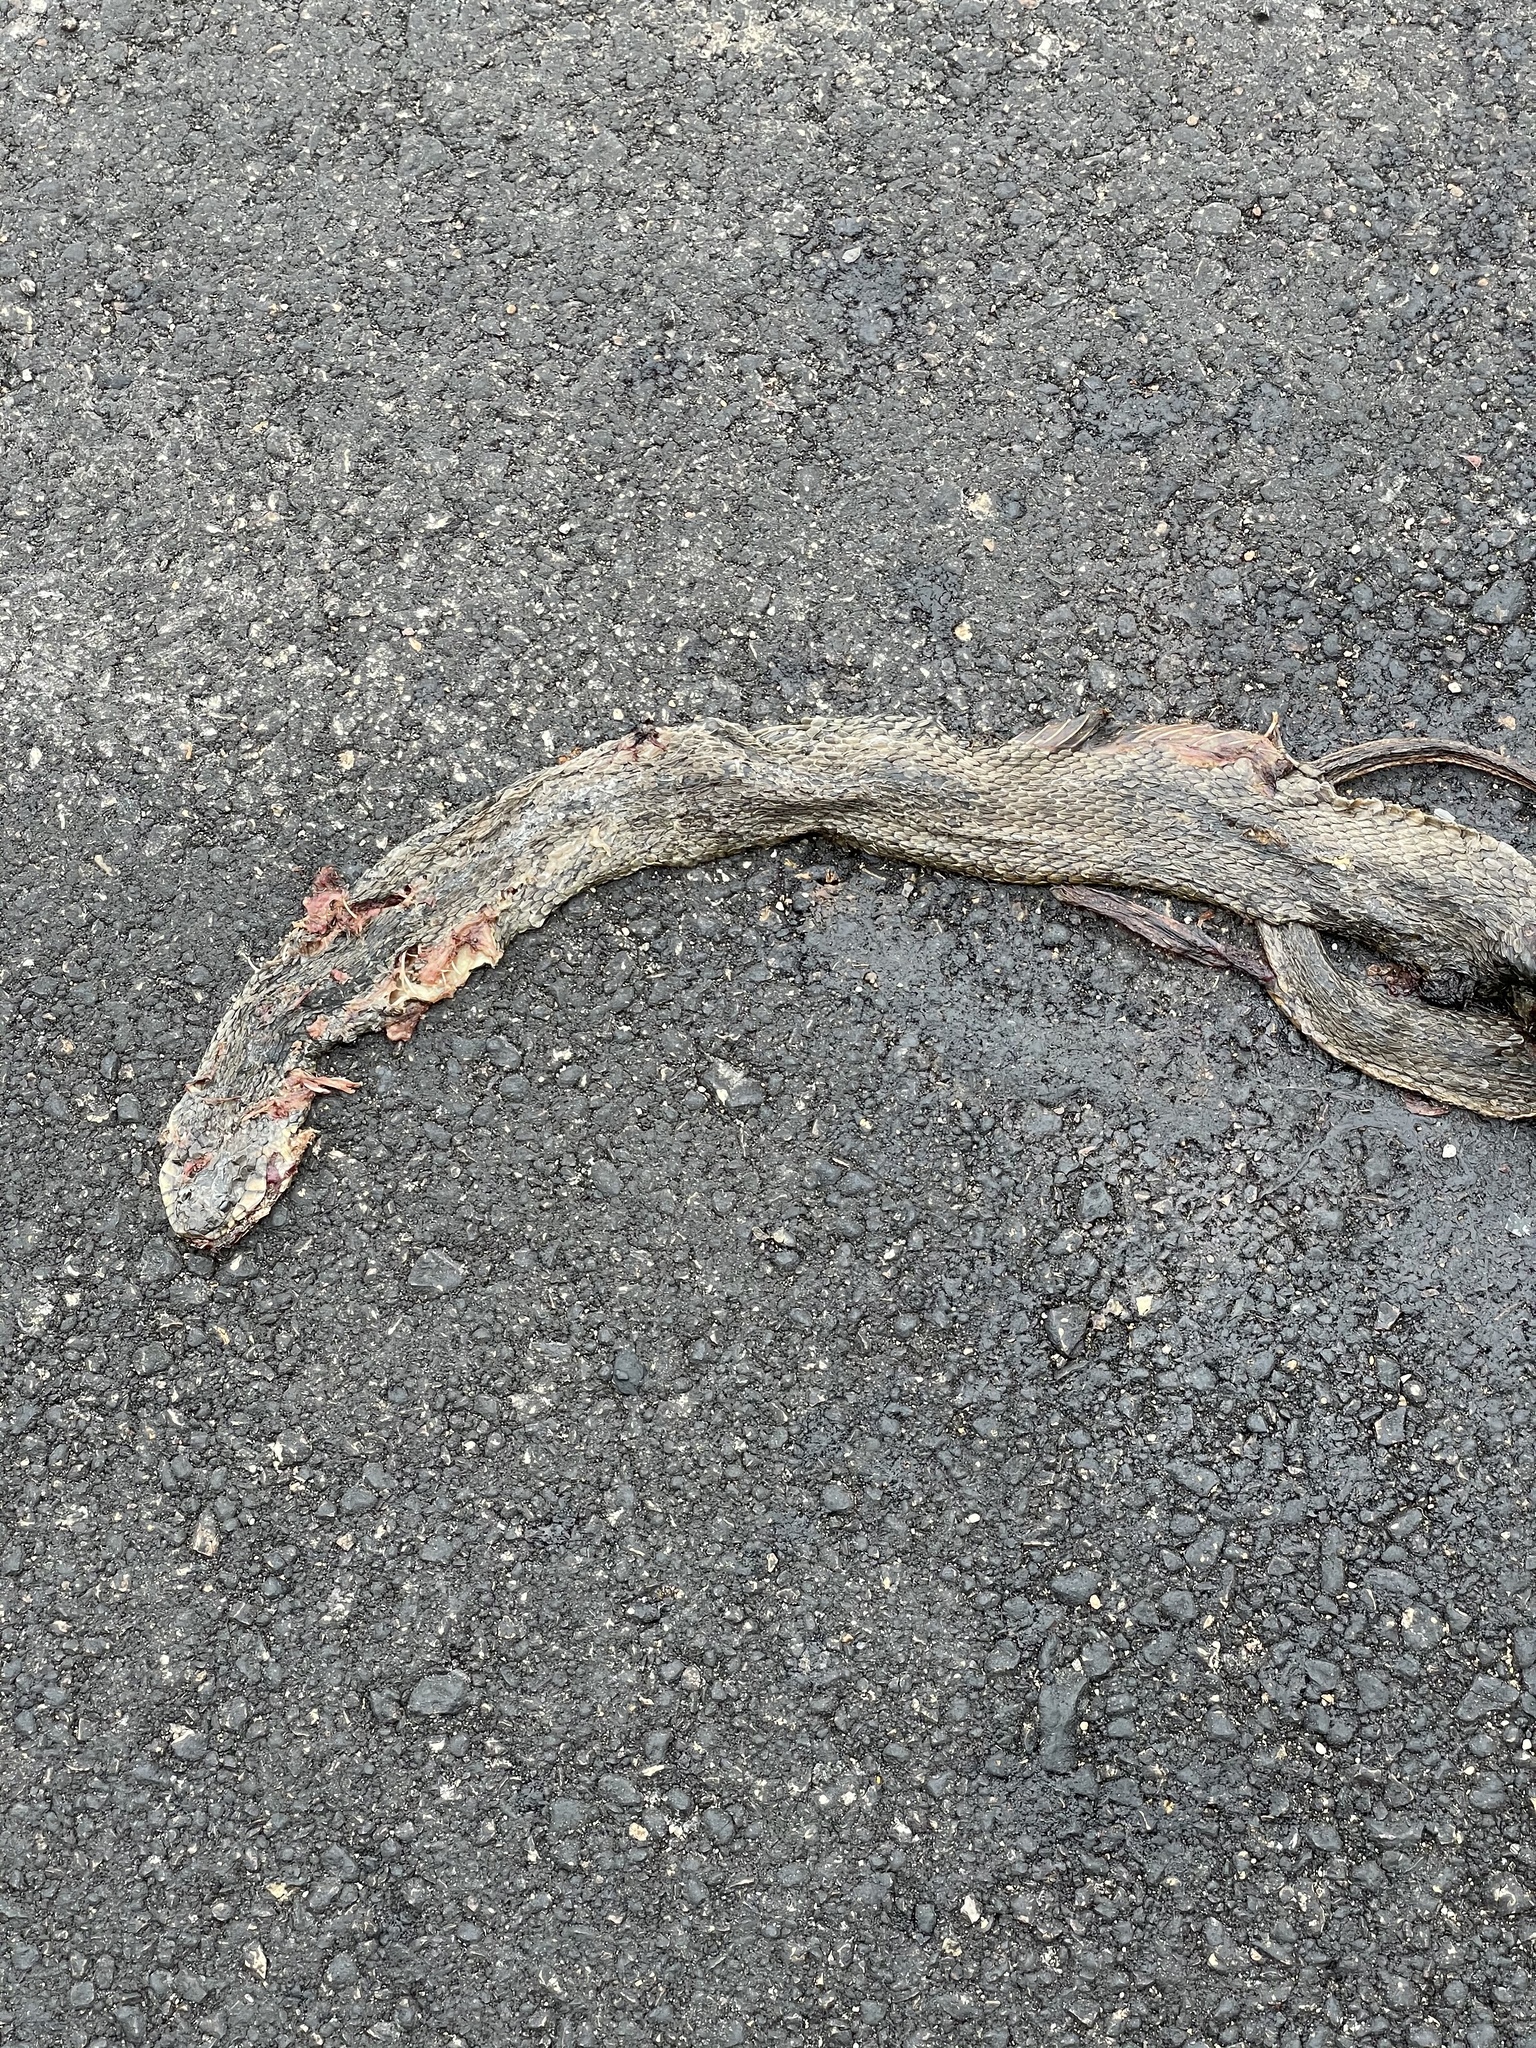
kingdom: Animalia
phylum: Chordata
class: Squamata
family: Colubridae
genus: Nerodia
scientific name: Nerodia erythrogaster
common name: Plainbelly water snake
